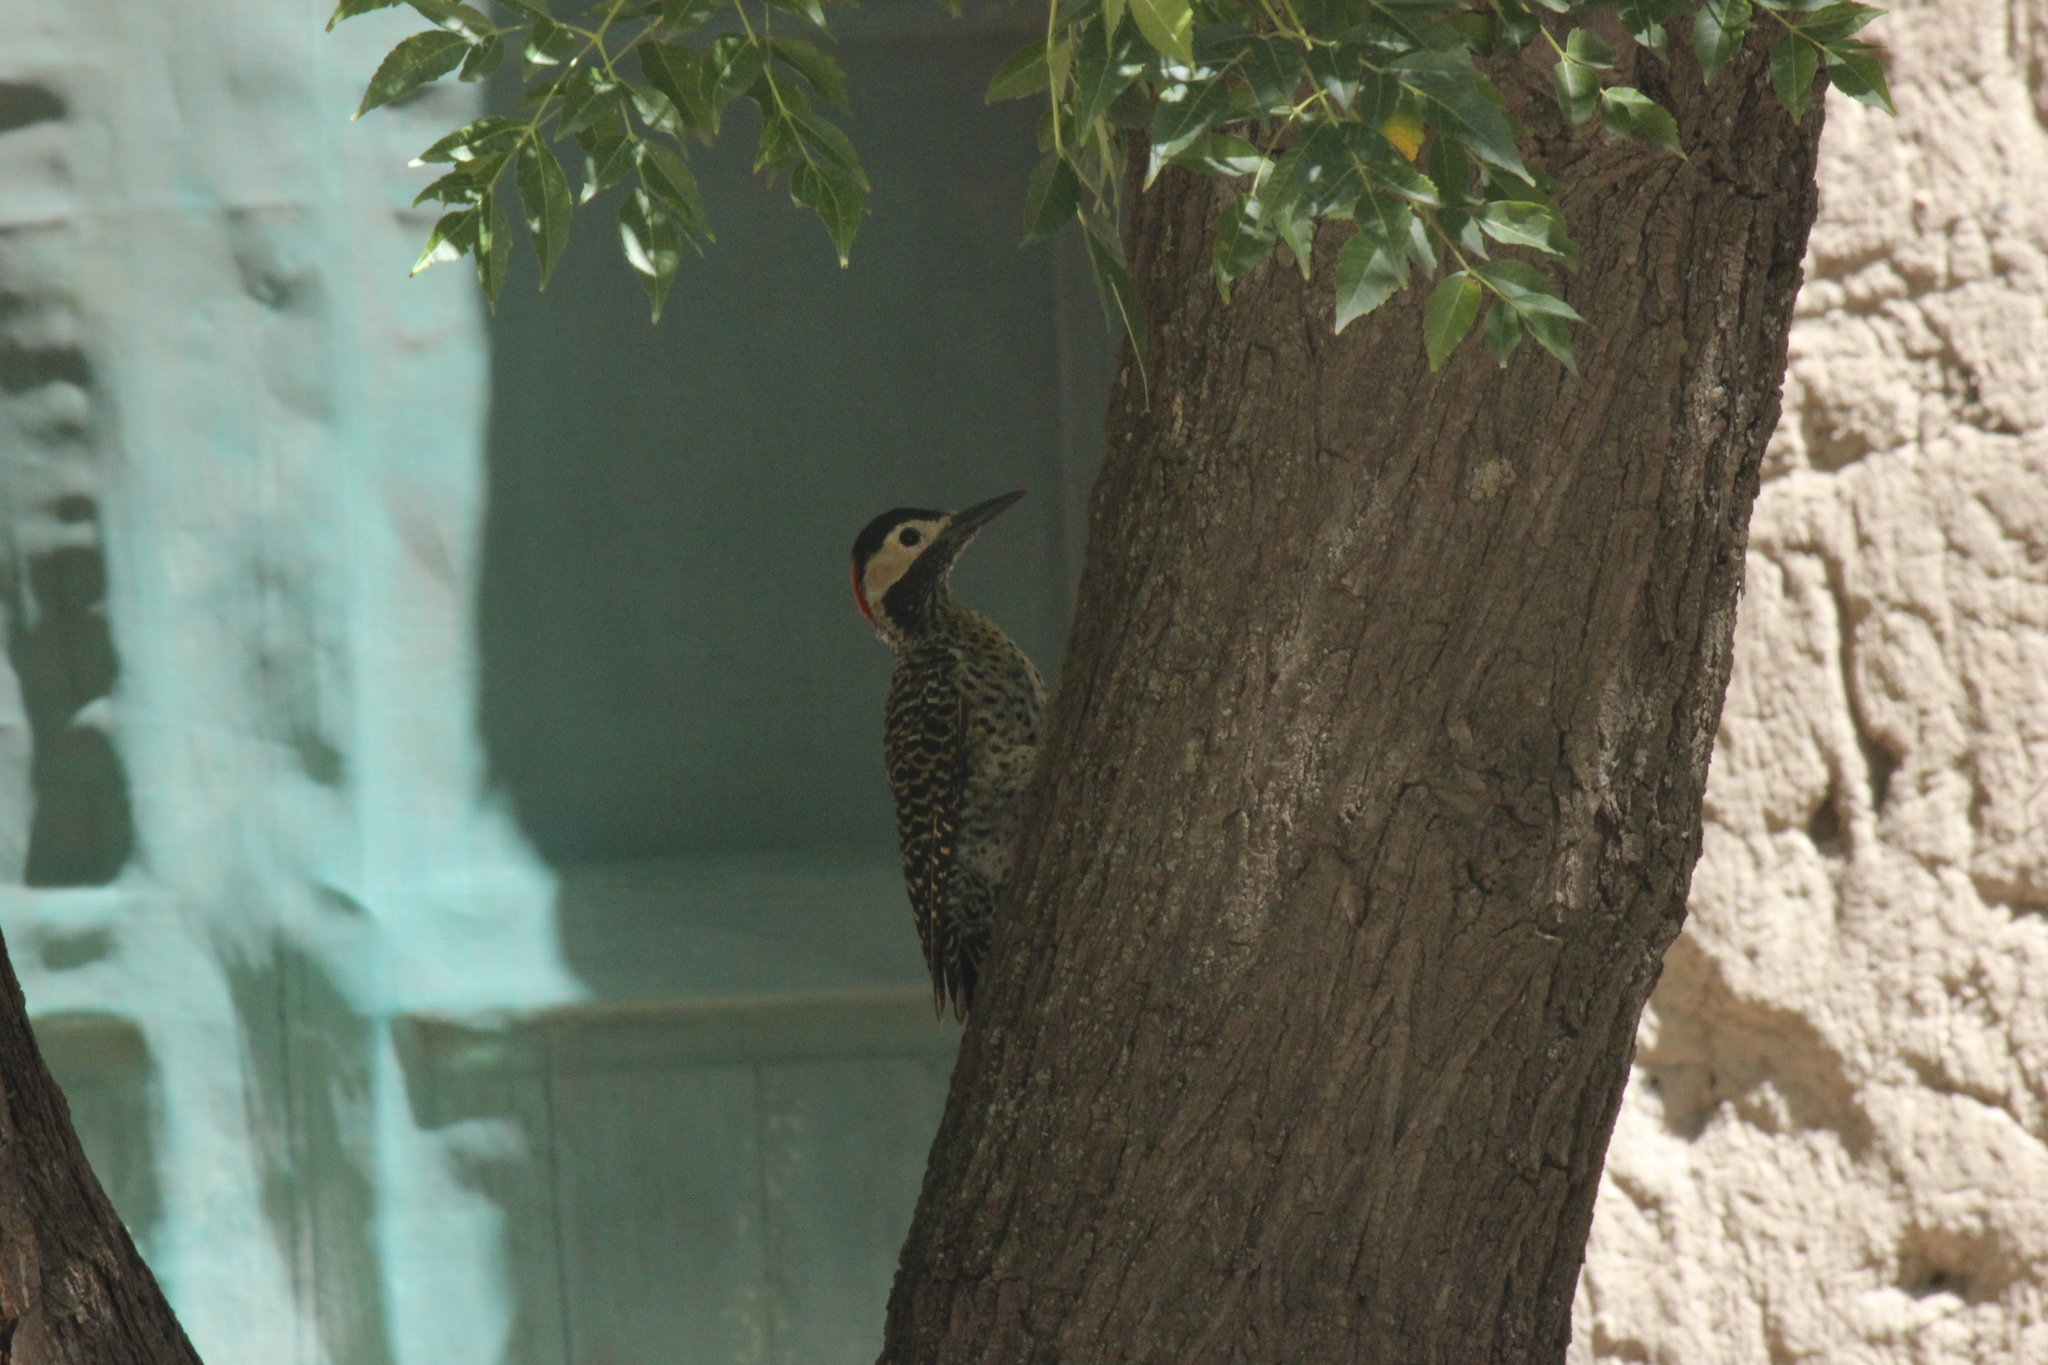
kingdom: Animalia
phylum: Chordata
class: Aves
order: Piciformes
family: Picidae
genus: Colaptes
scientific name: Colaptes melanochloros
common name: Green-barred woodpecker
